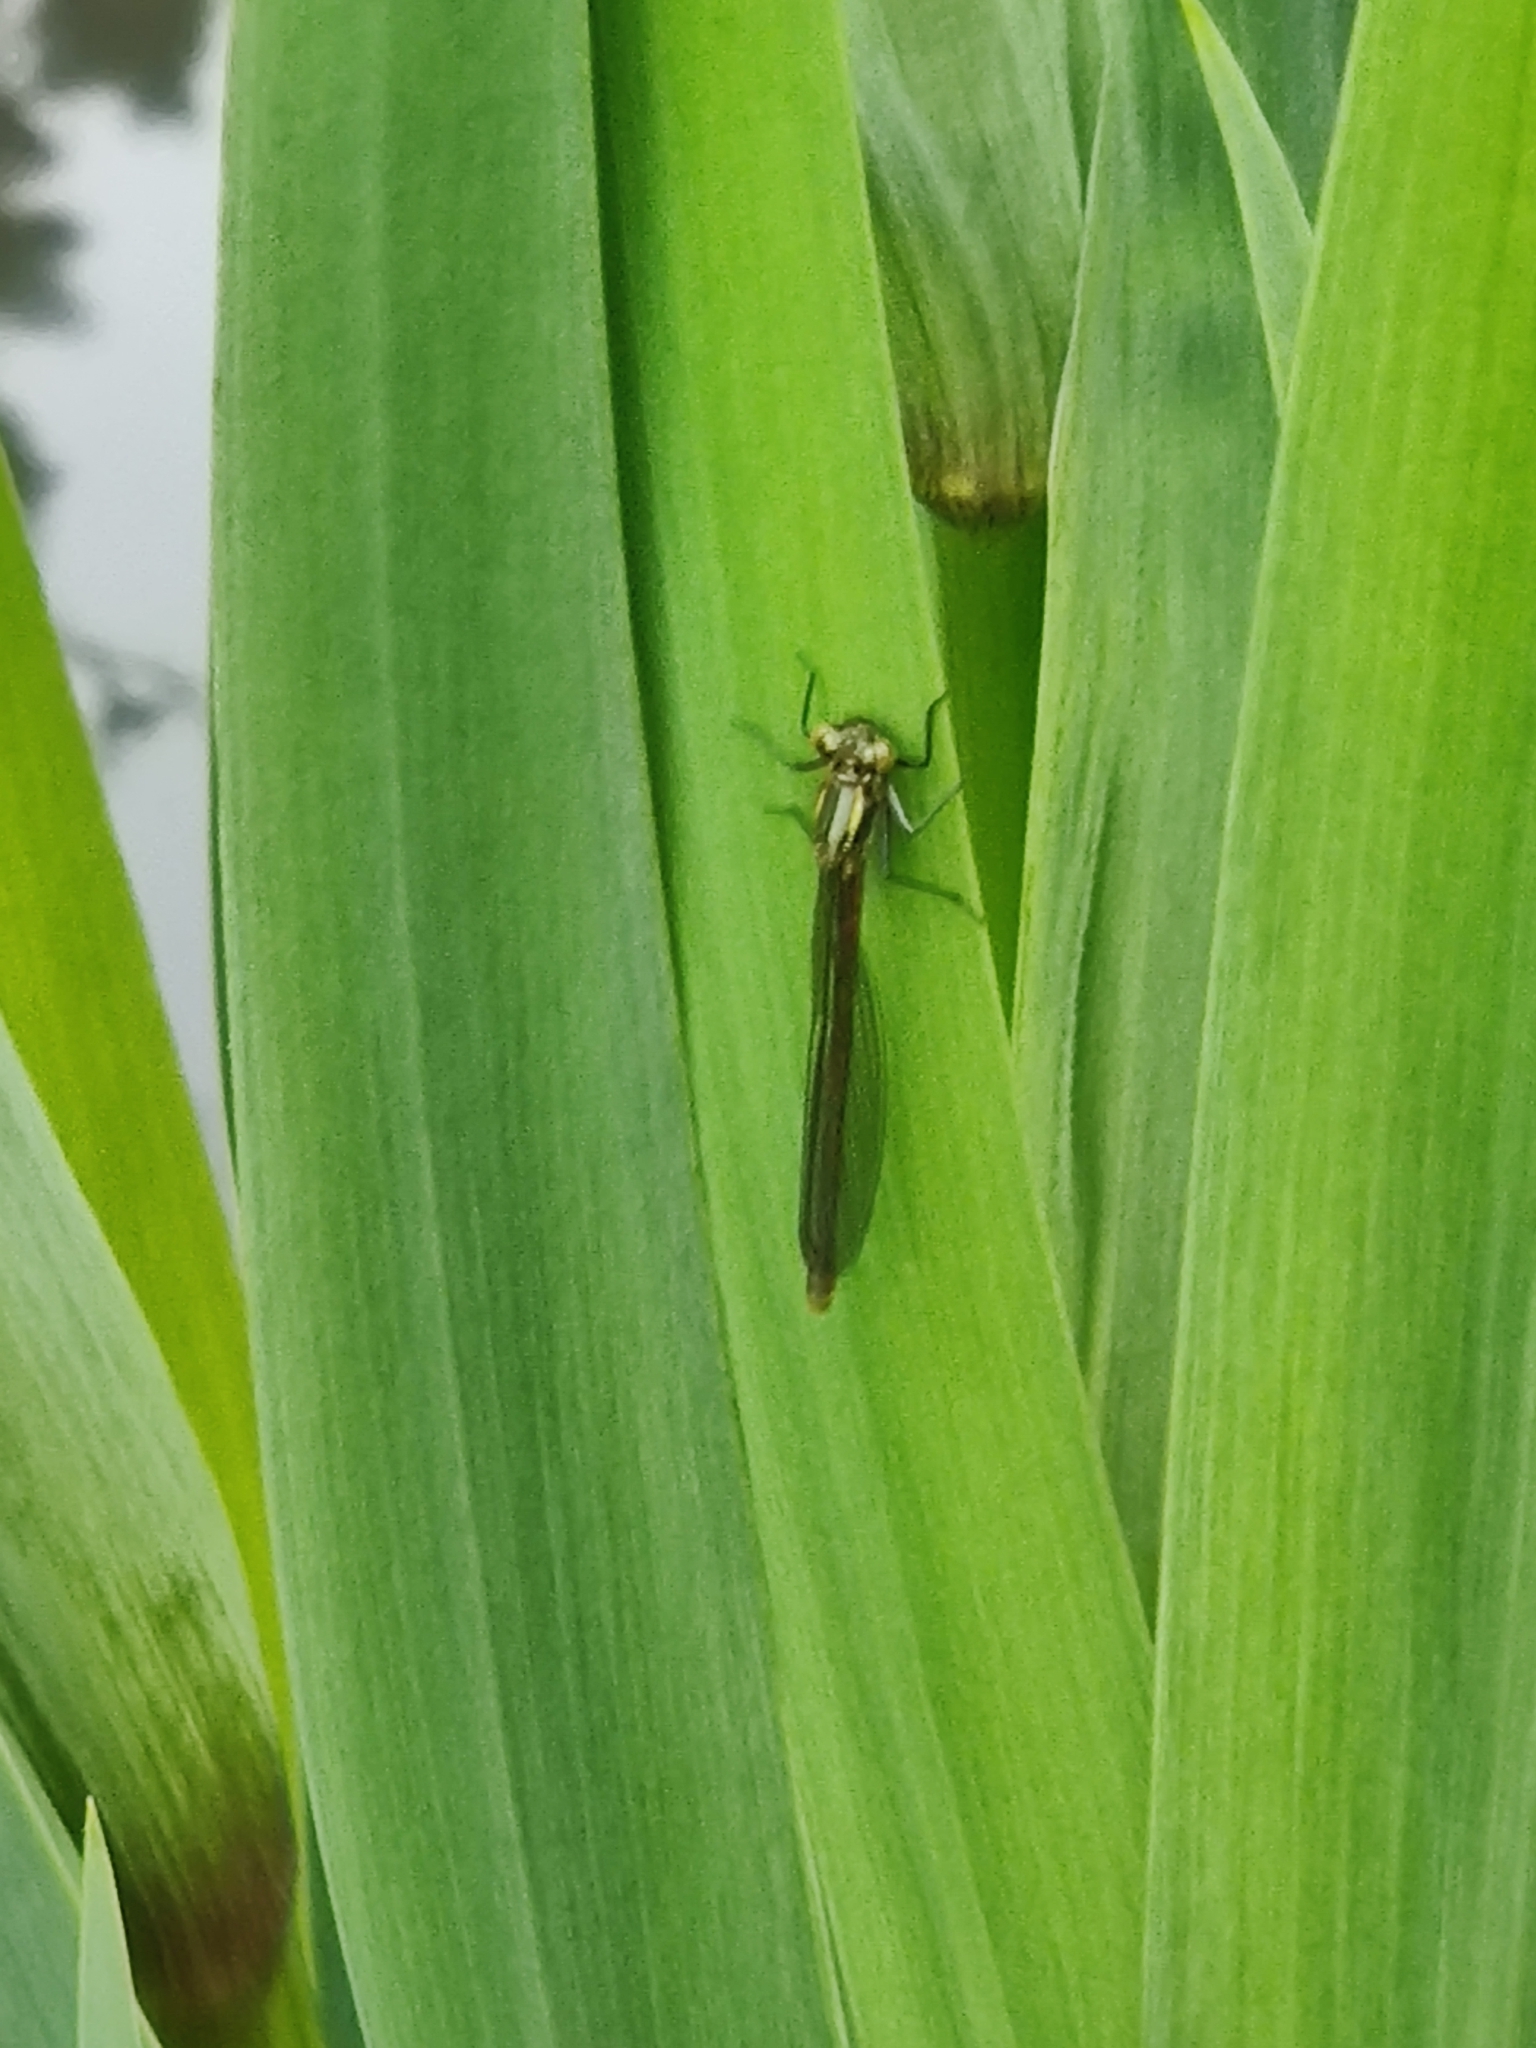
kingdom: Animalia
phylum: Arthropoda
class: Insecta
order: Odonata
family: Coenagrionidae
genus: Pyrrhosoma
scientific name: Pyrrhosoma nymphula
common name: Large red damsel
